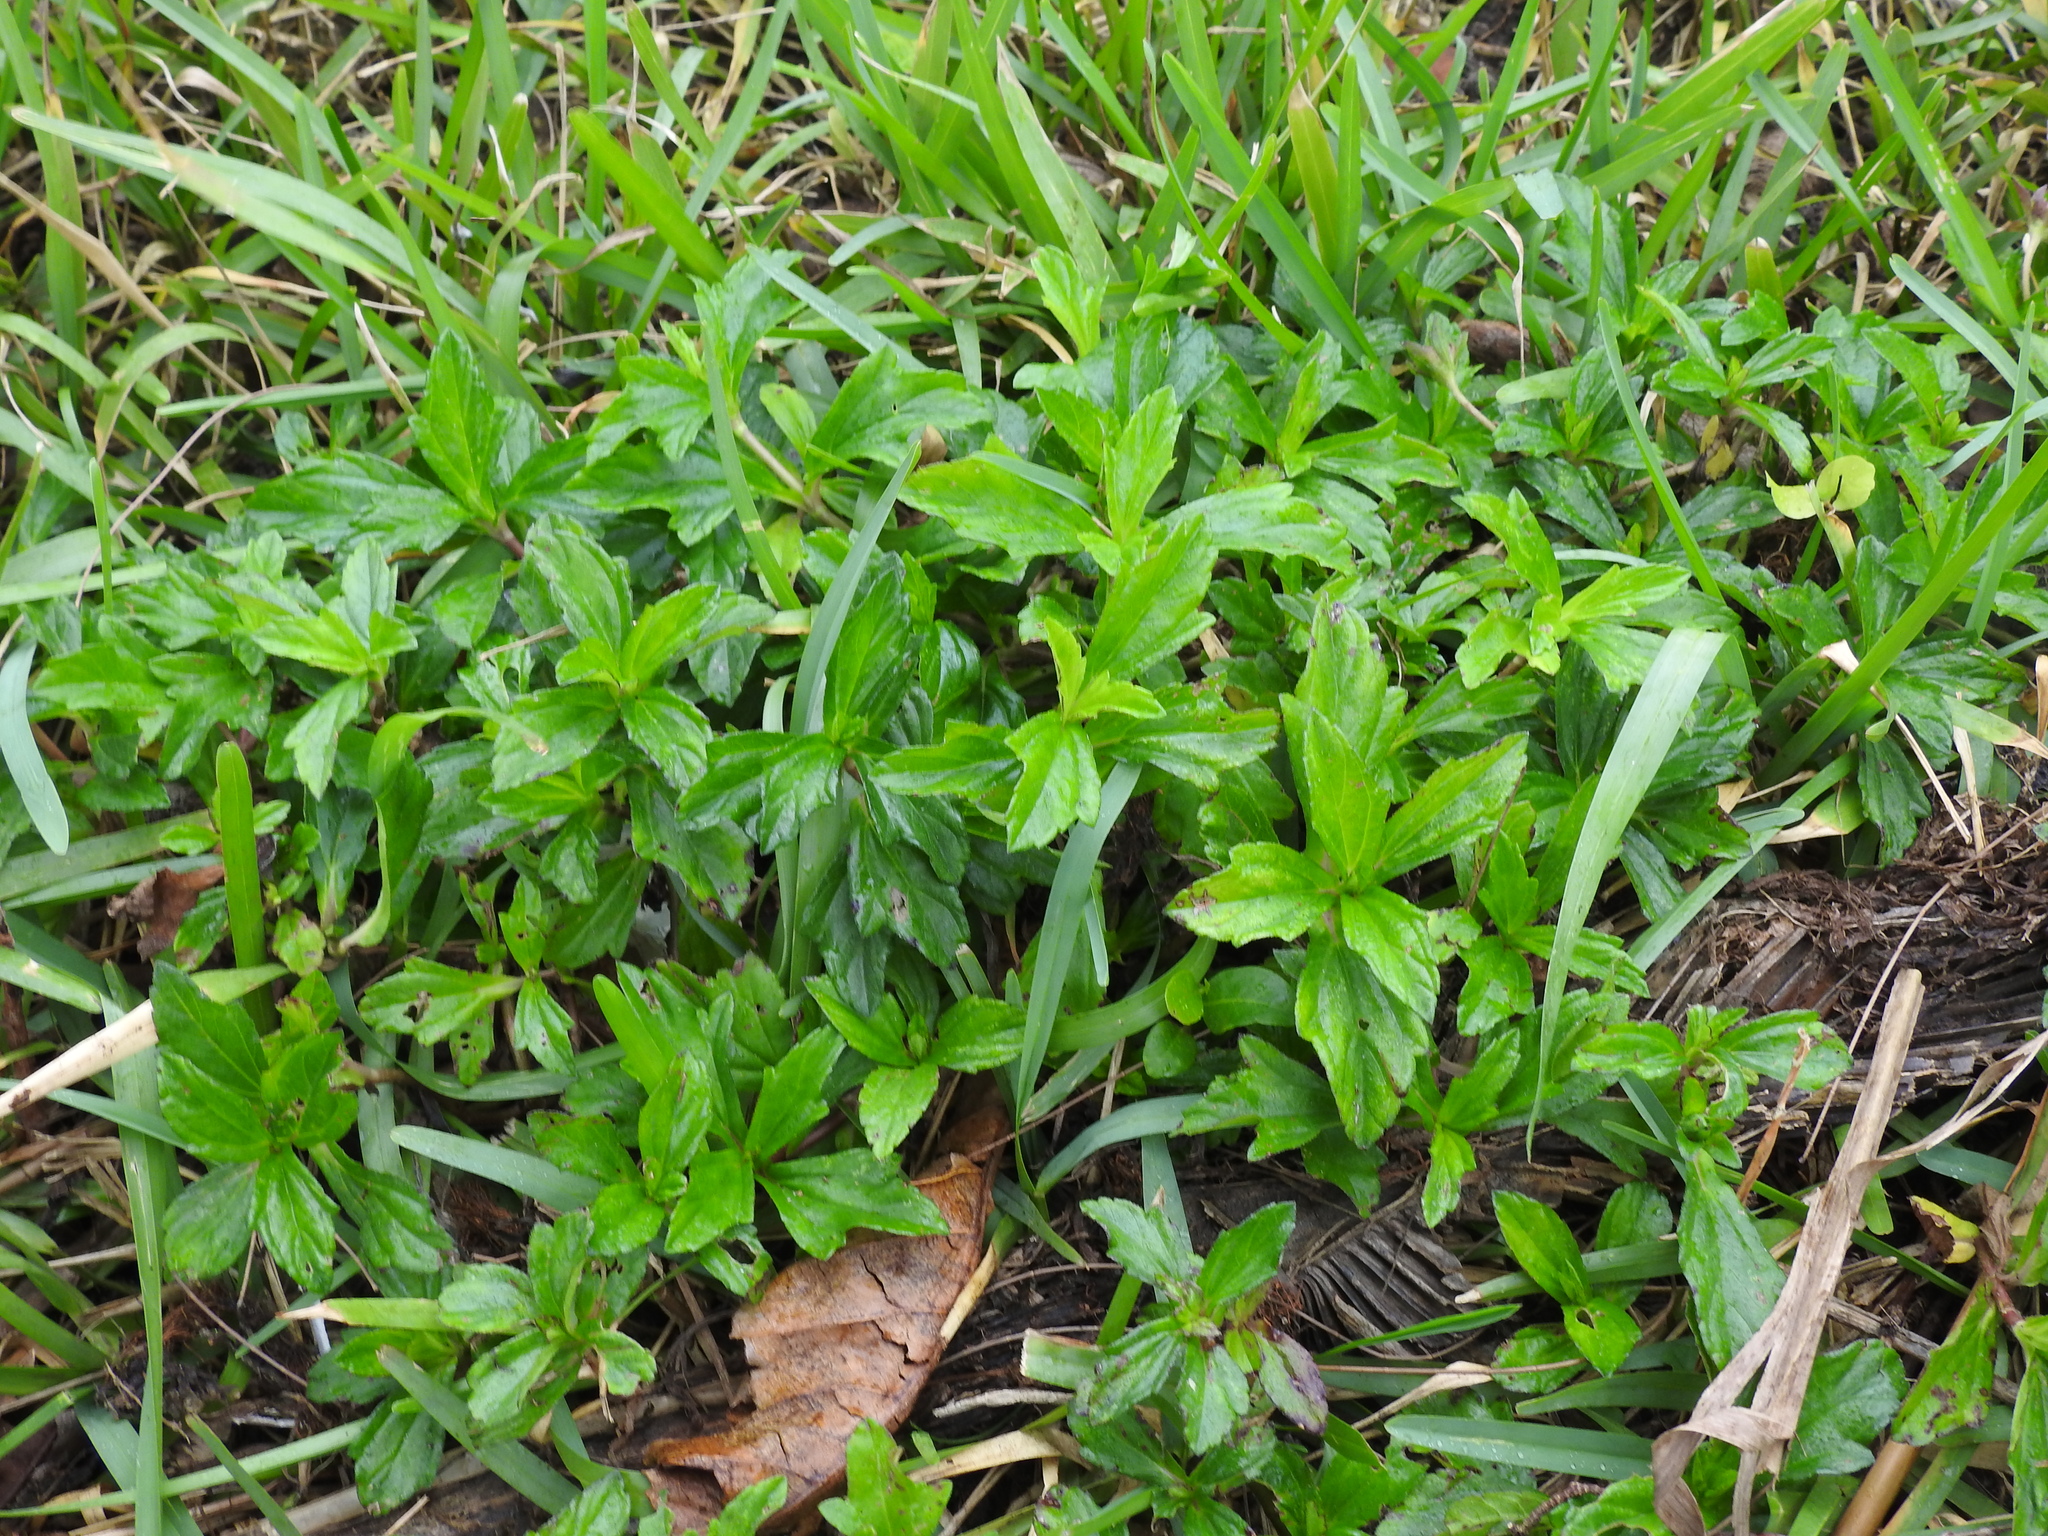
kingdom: Plantae
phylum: Tracheophyta
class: Magnoliopsida
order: Asterales
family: Asteraceae
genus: Sphagneticola
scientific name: Sphagneticola trilobata
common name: Bay biscayne creeping-oxeye
